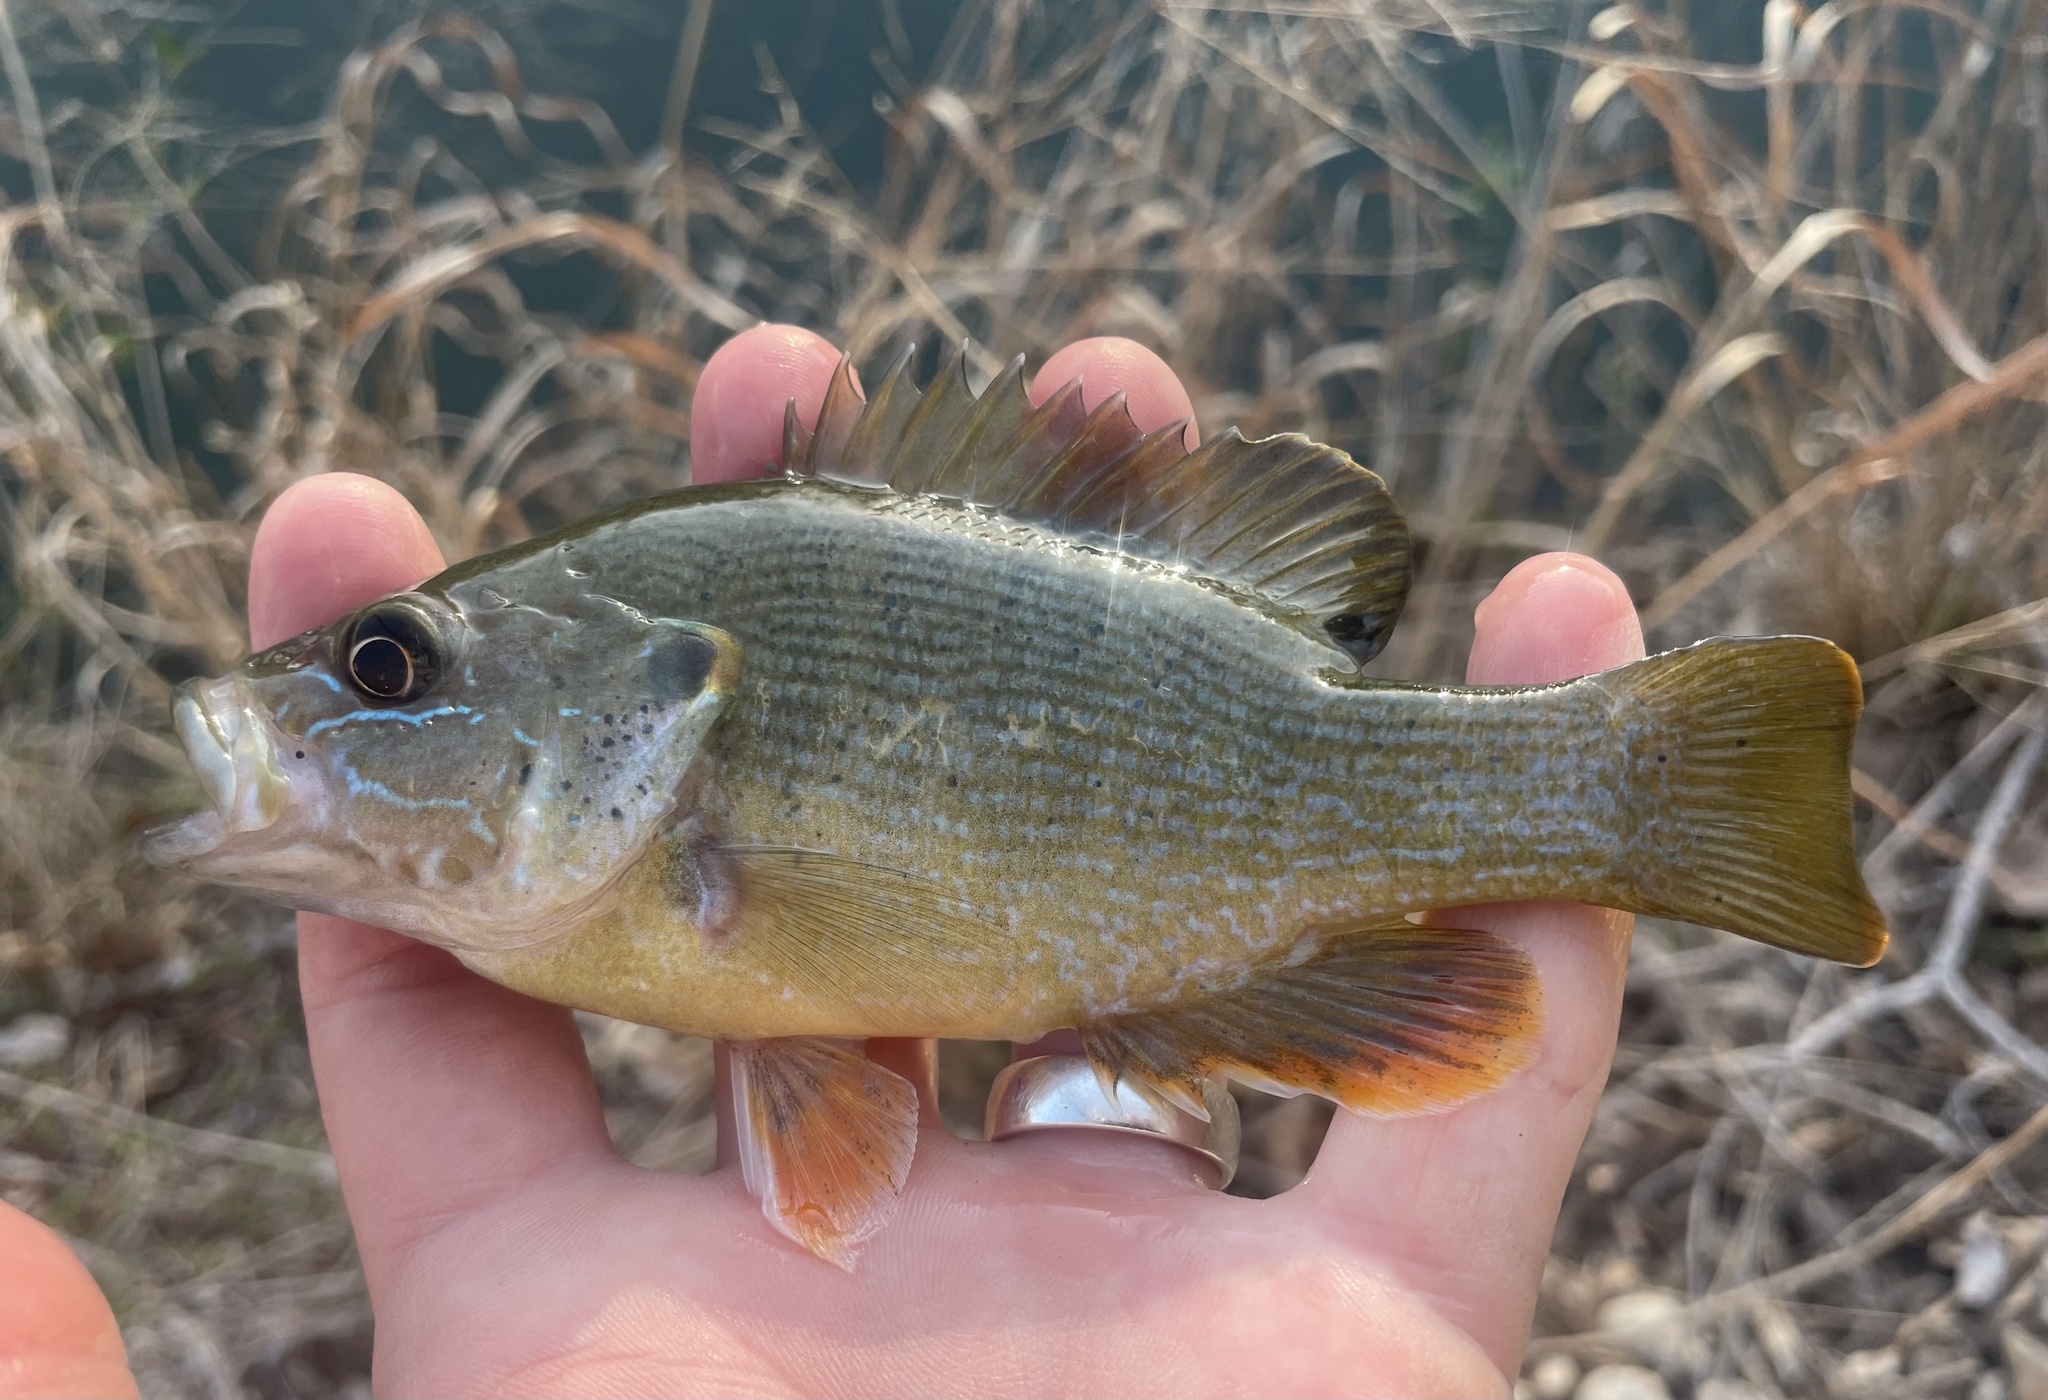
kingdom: Animalia
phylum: Chordata
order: Perciformes
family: Centrarchidae
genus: Lepomis
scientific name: Lepomis cyanellus
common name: Green sunfish
